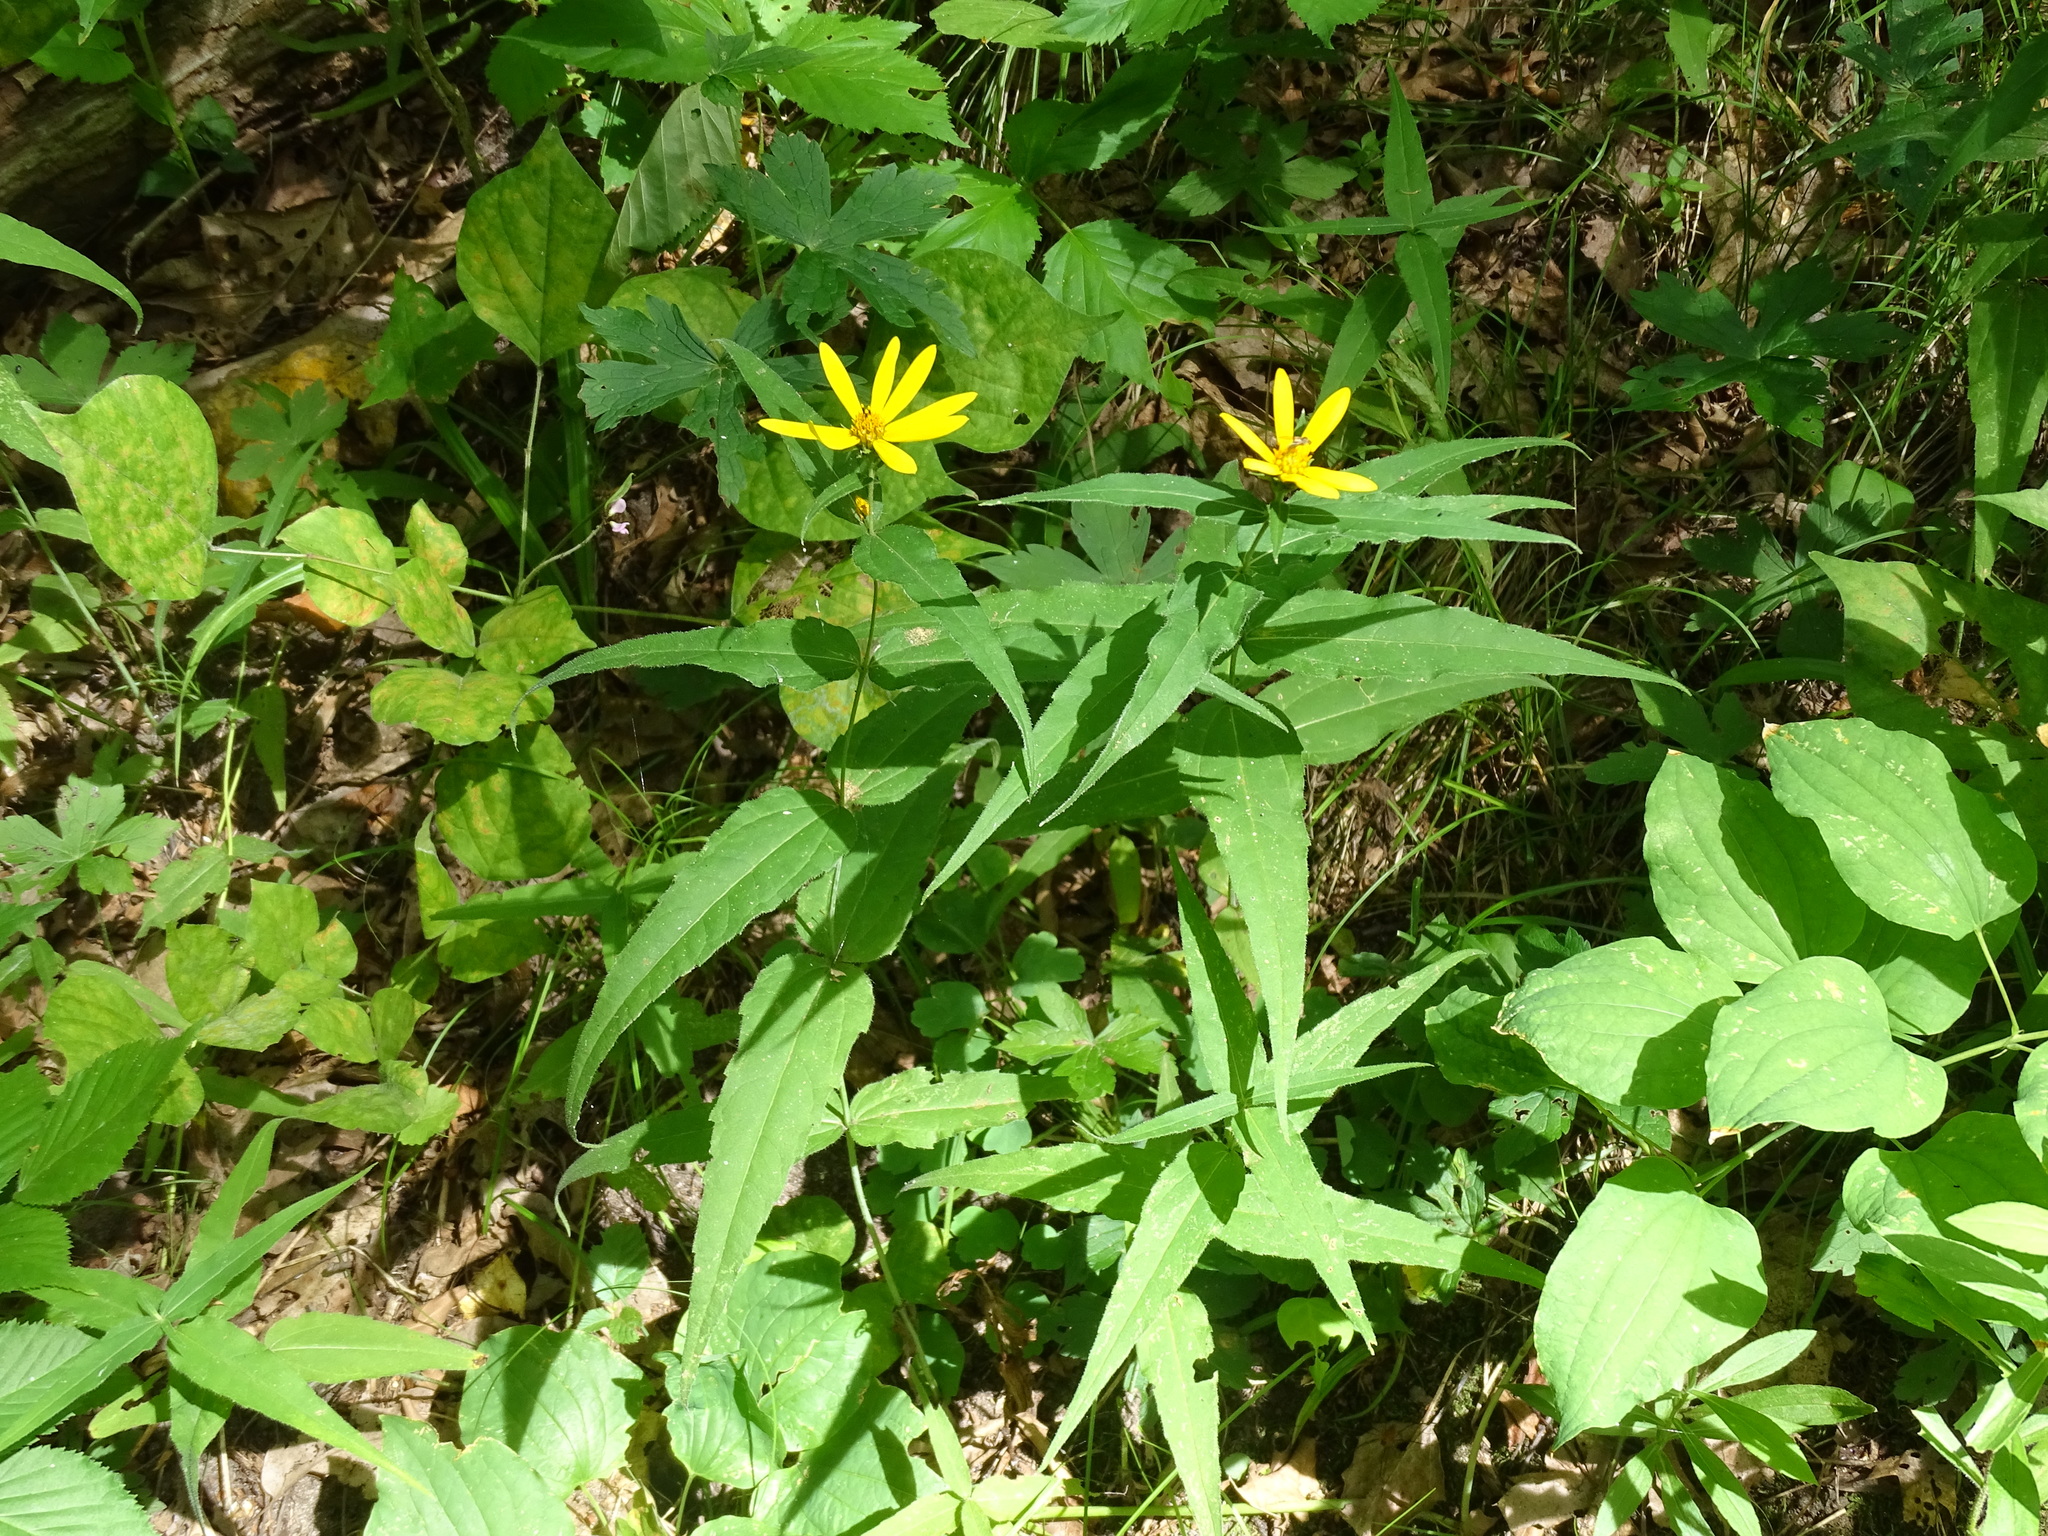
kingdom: Plantae
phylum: Tracheophyta
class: Magnoliopsida
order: Asterales
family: Asteraceae
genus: Helianthus
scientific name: Helianthus divaricatus
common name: Divergent sunflower
